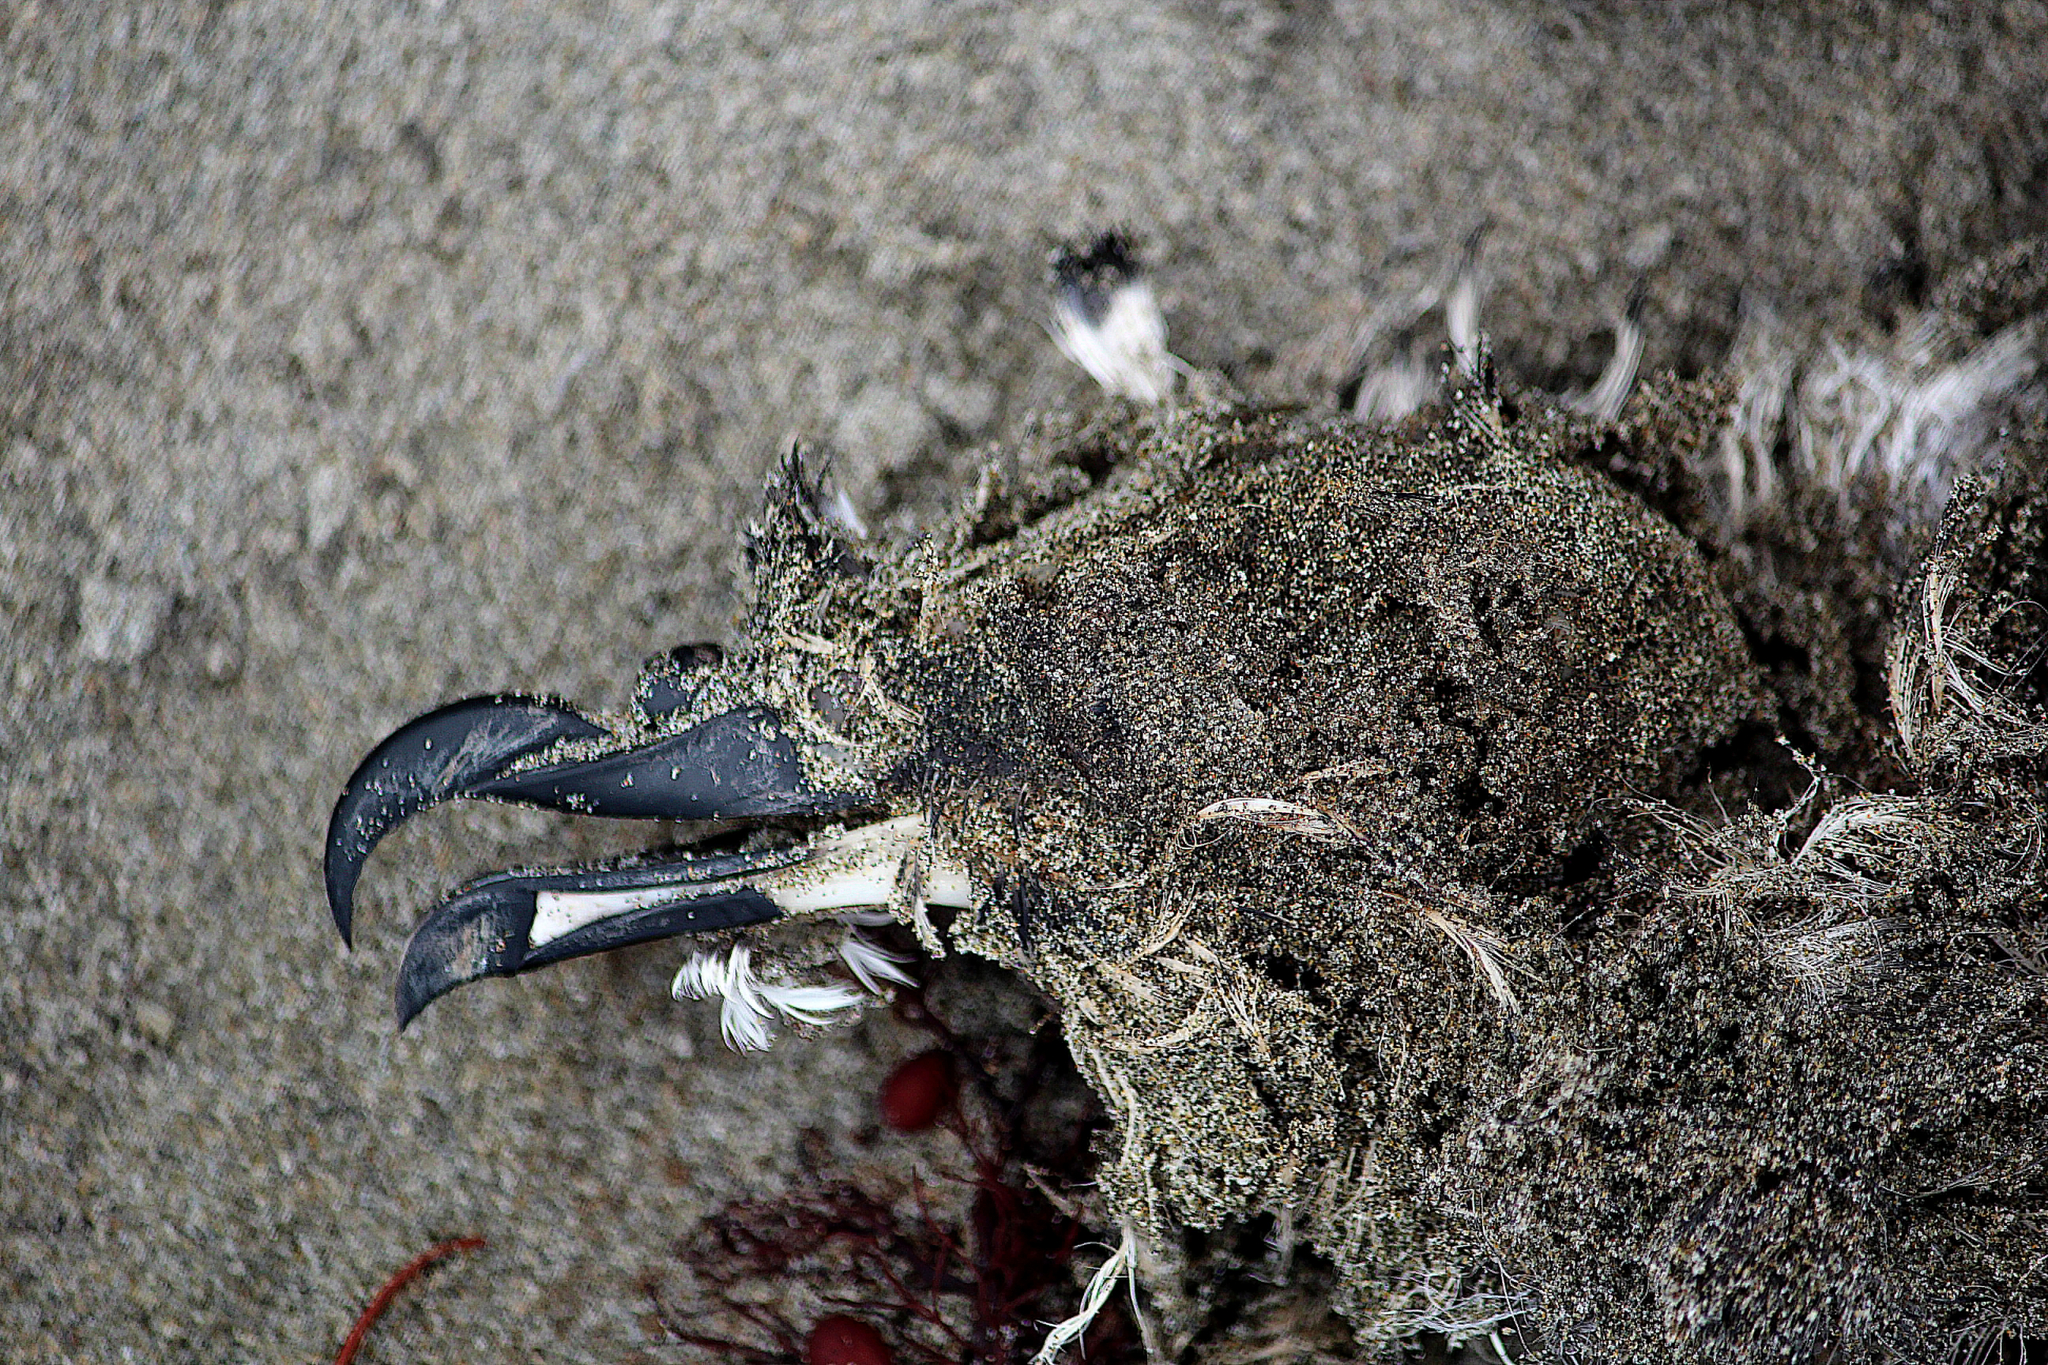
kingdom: Animalia
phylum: Chordata
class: Aves
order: Procellariiformes
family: Procellariidae
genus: Pterodroma
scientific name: Pterodroma inexpectata
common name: Mottled petrel
